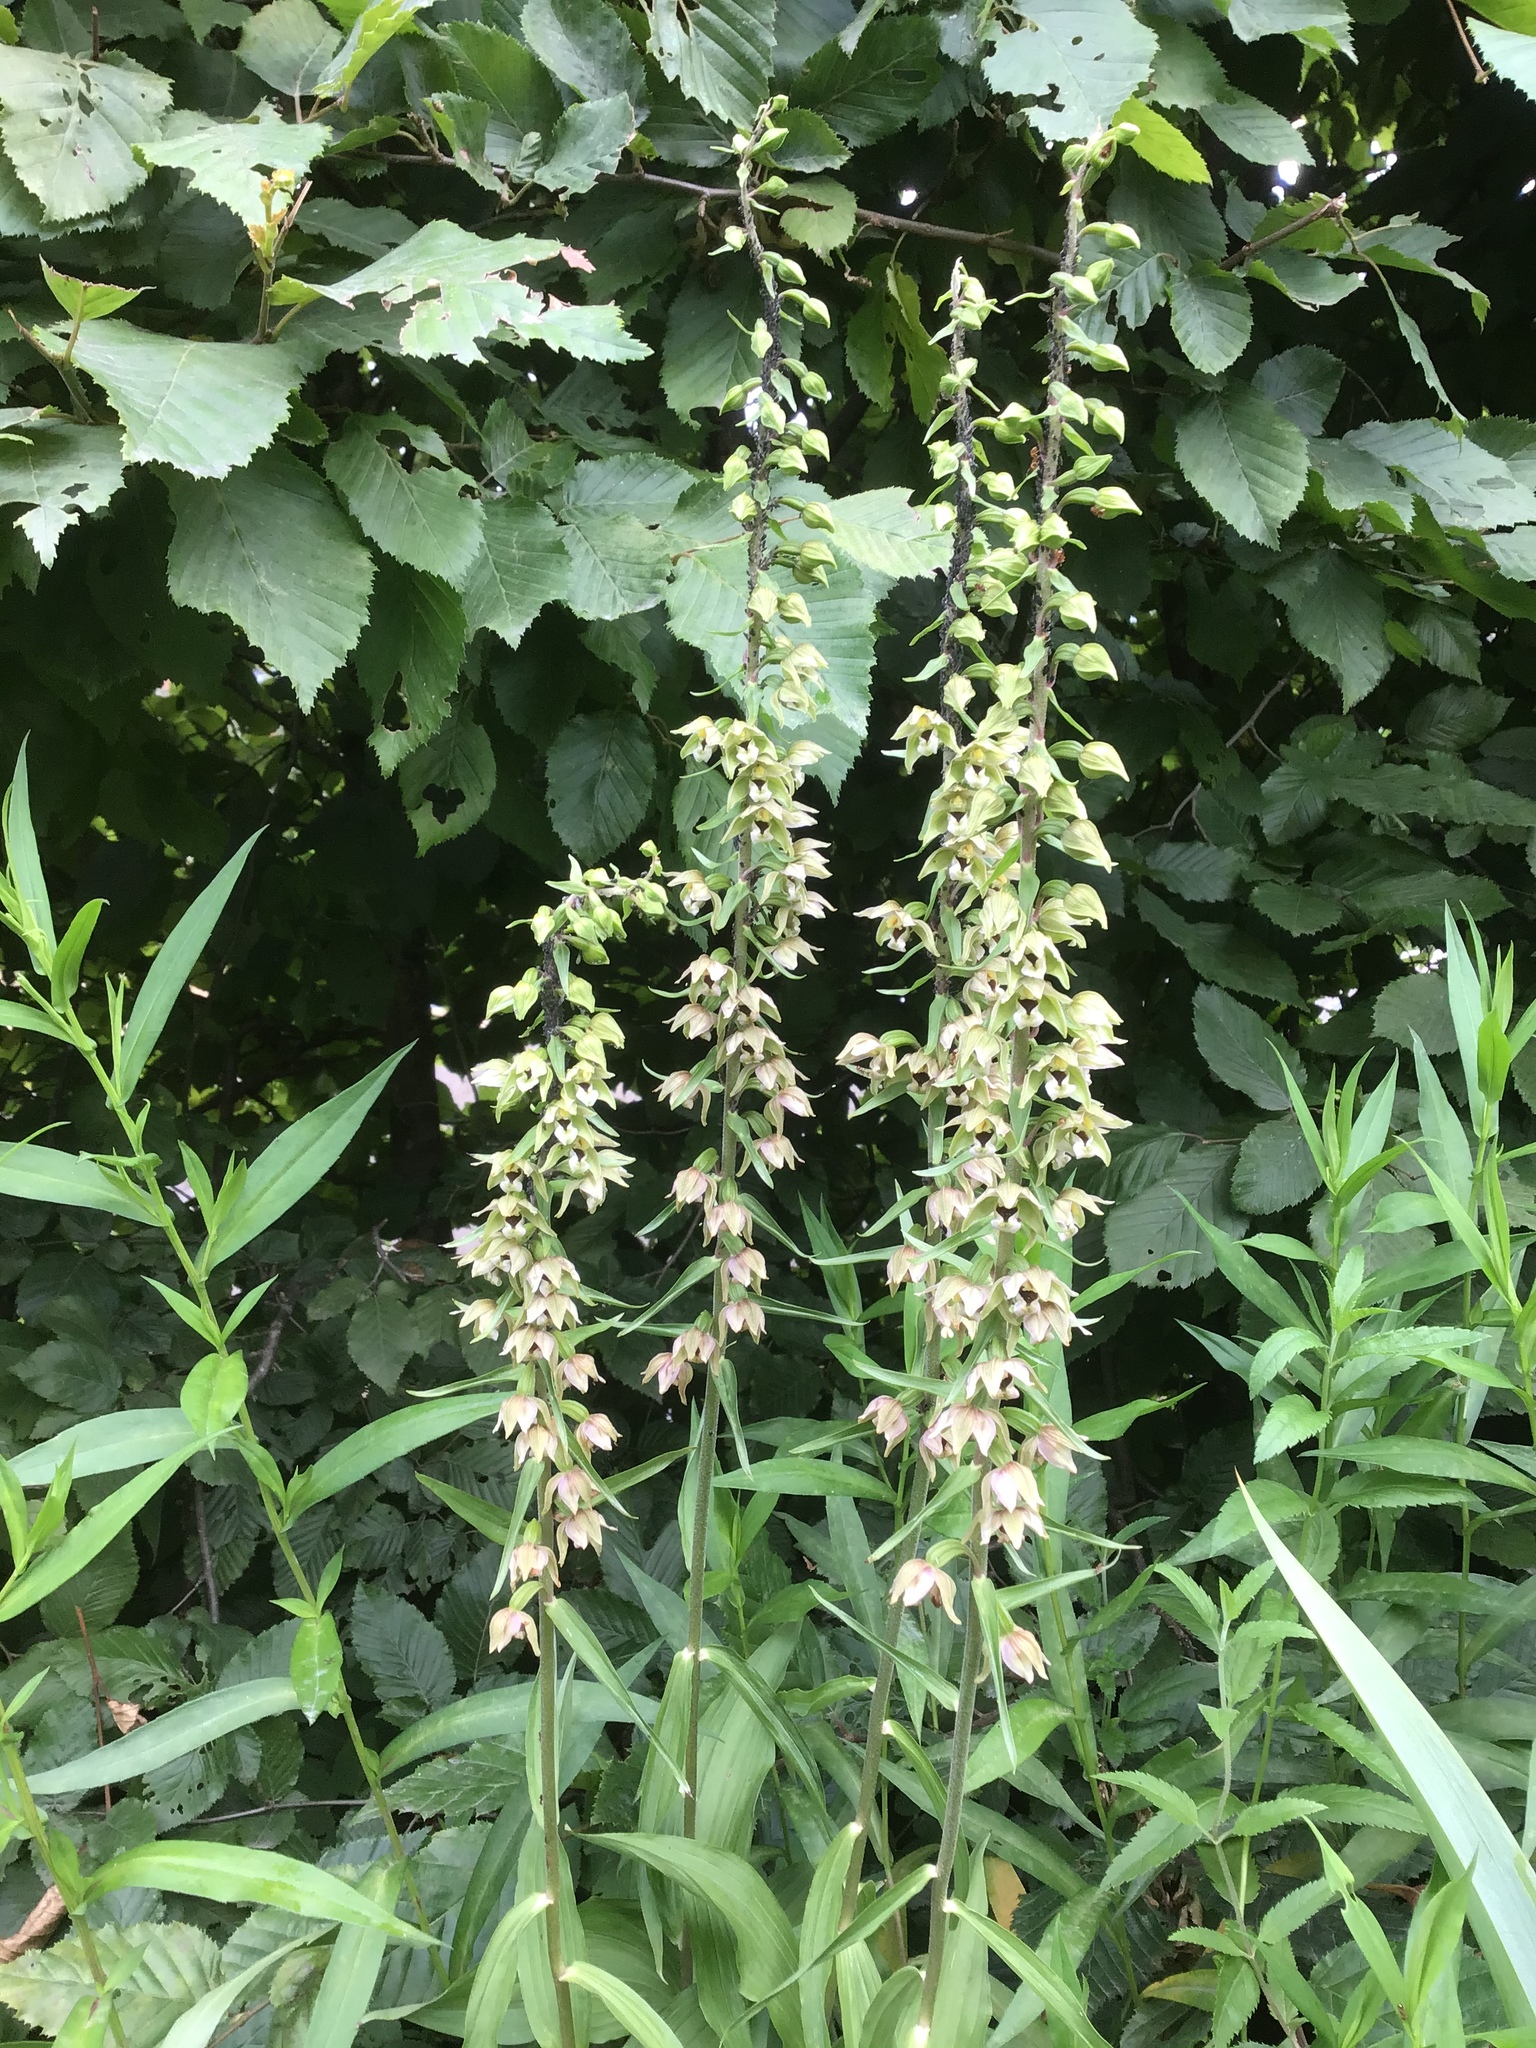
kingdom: Plantae
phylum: Tracheophyta
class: Liliopsida
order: Asparagales
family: Orchidaceae
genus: Epipactis
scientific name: Epipactis helleborine
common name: Broad-leaved helleborine
